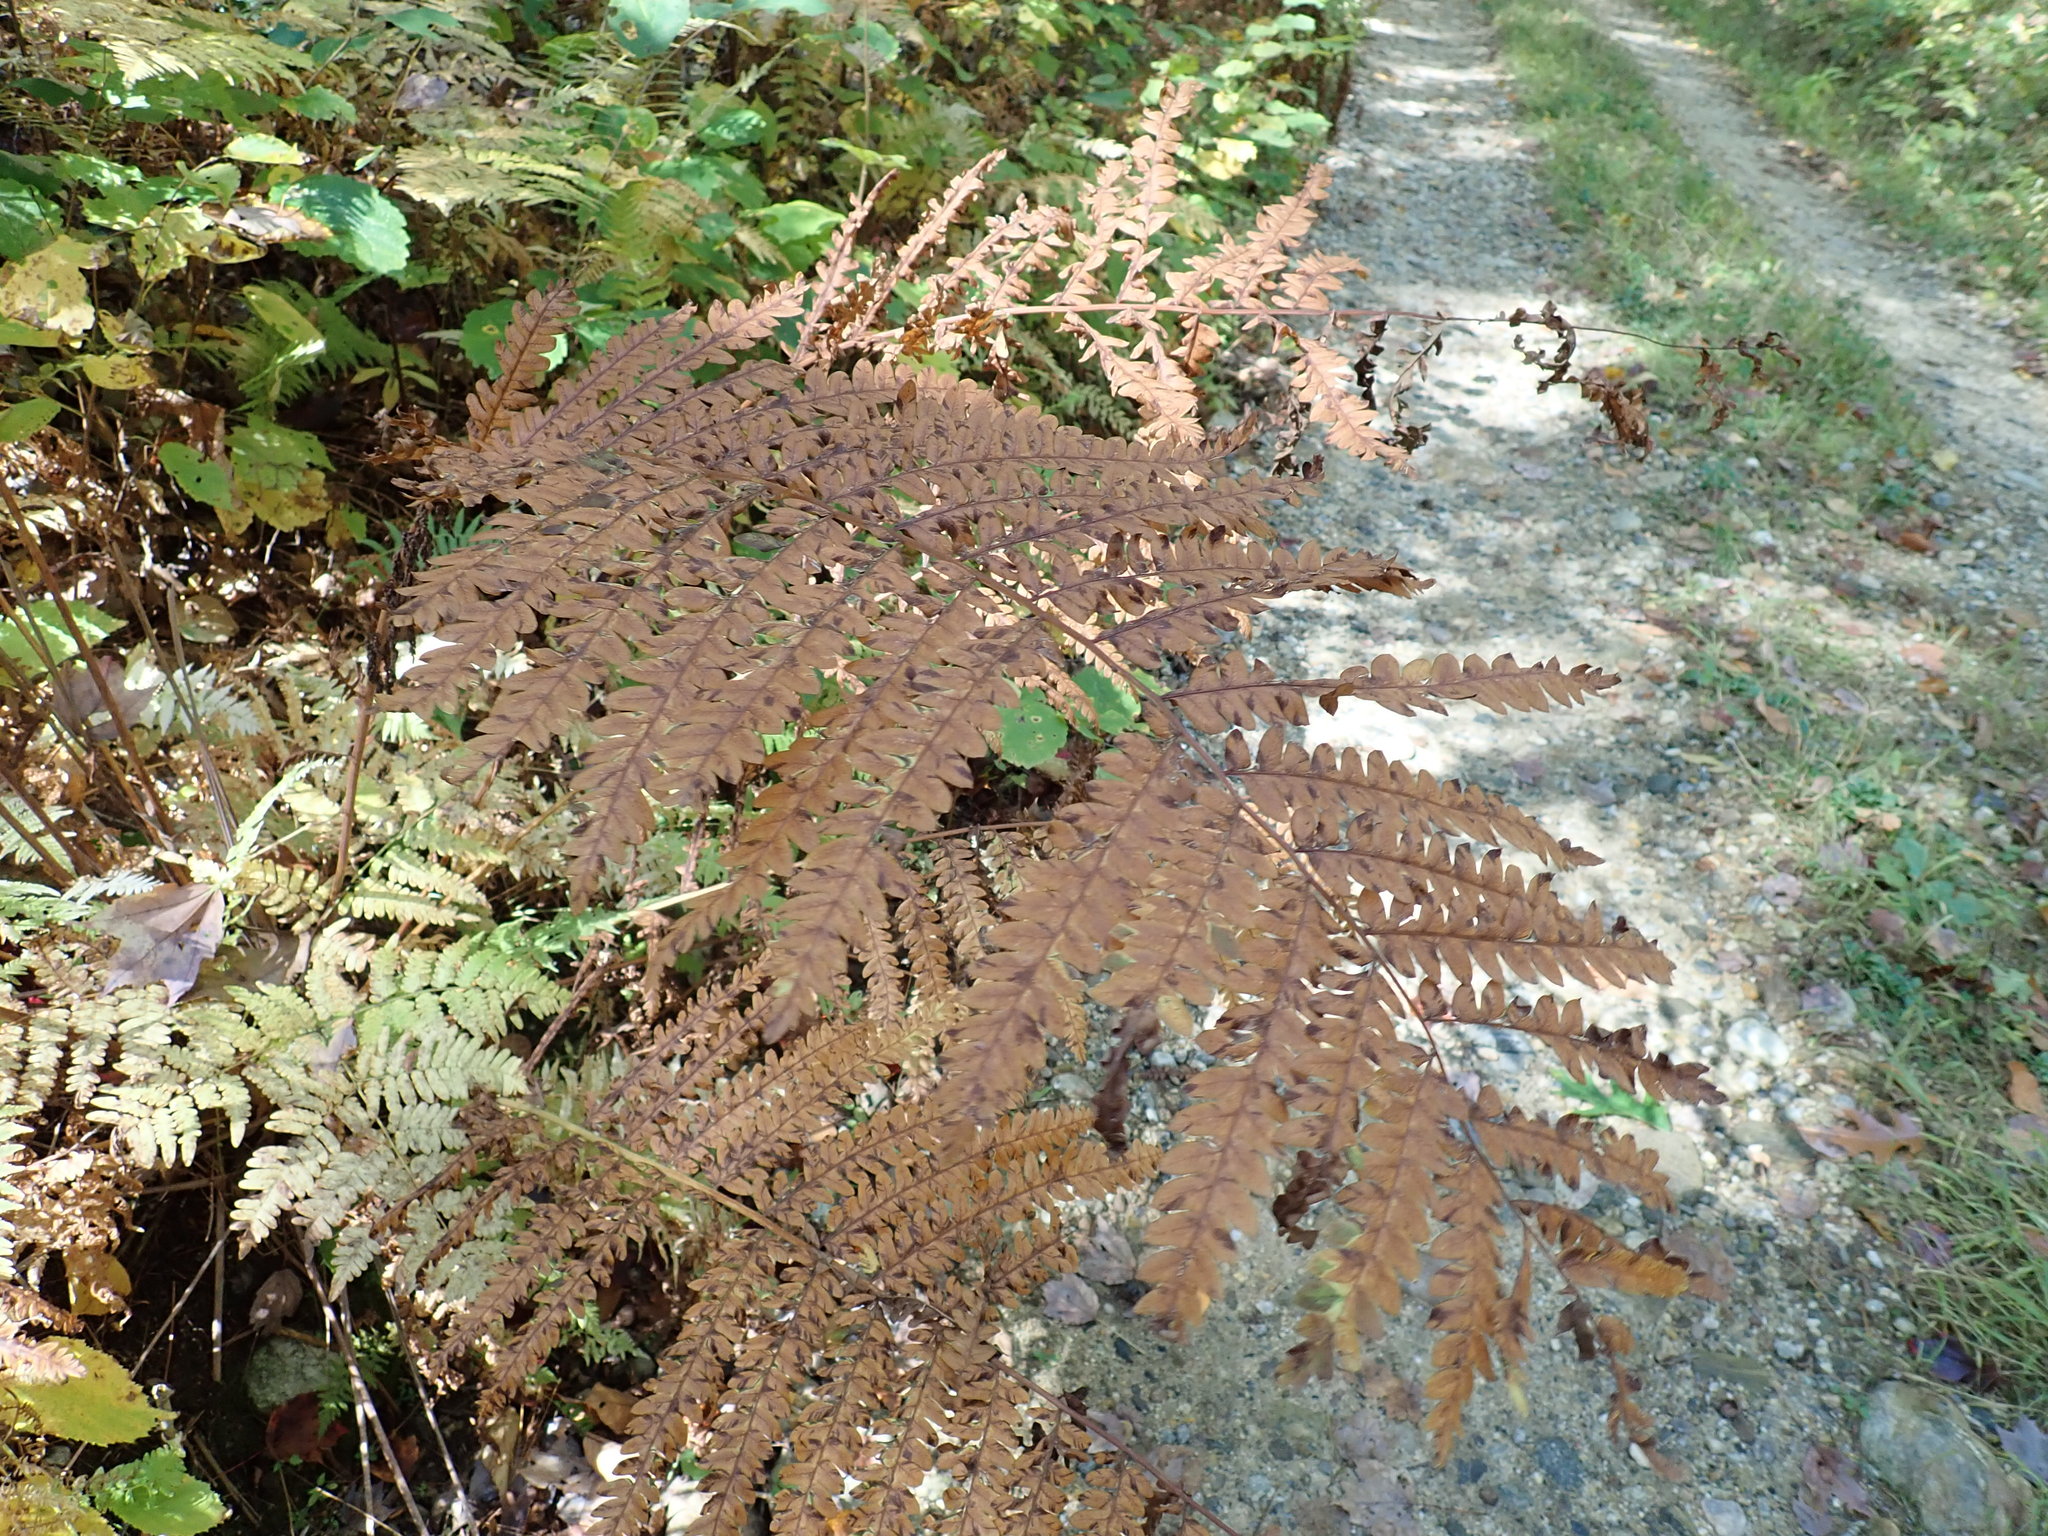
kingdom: Plantae
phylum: Tracheophyta
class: Polypodiopsida
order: Osmundales
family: Osmundaceae
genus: Claytosmunda
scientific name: Claytosmunda claytoniana
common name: Clayton's fern
